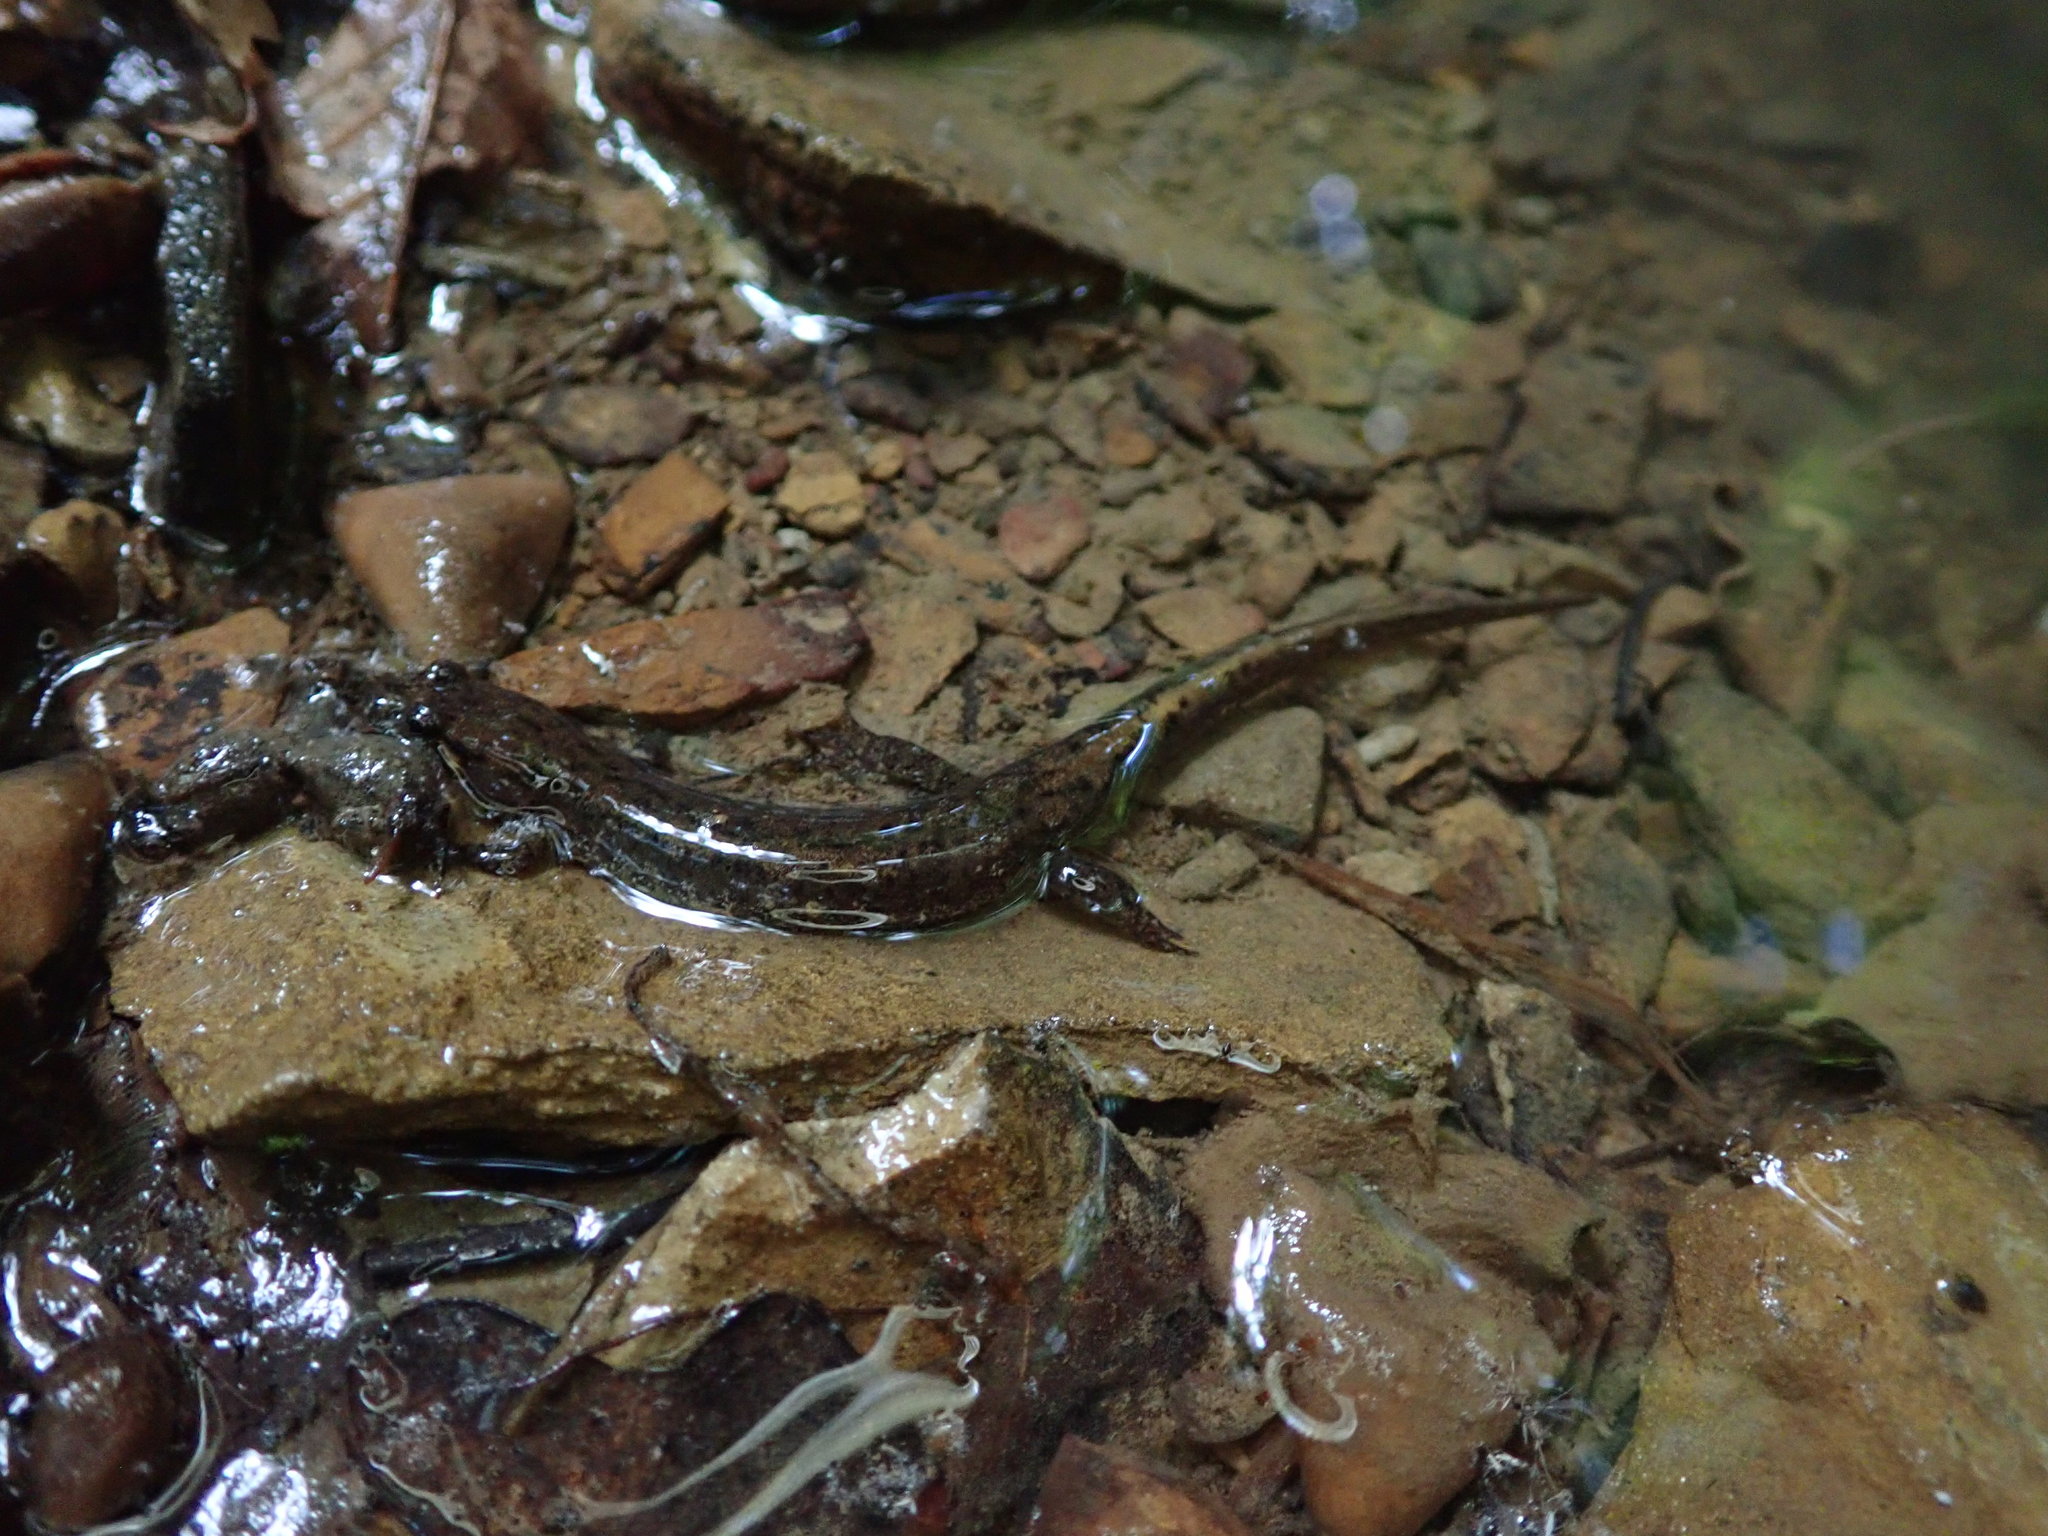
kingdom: Animalia
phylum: Chordata
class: Amphibia
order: Caudata
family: Plethodontidae
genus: Desmognathus
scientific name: Desmognathus fuscus
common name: Northern dusky salamander
